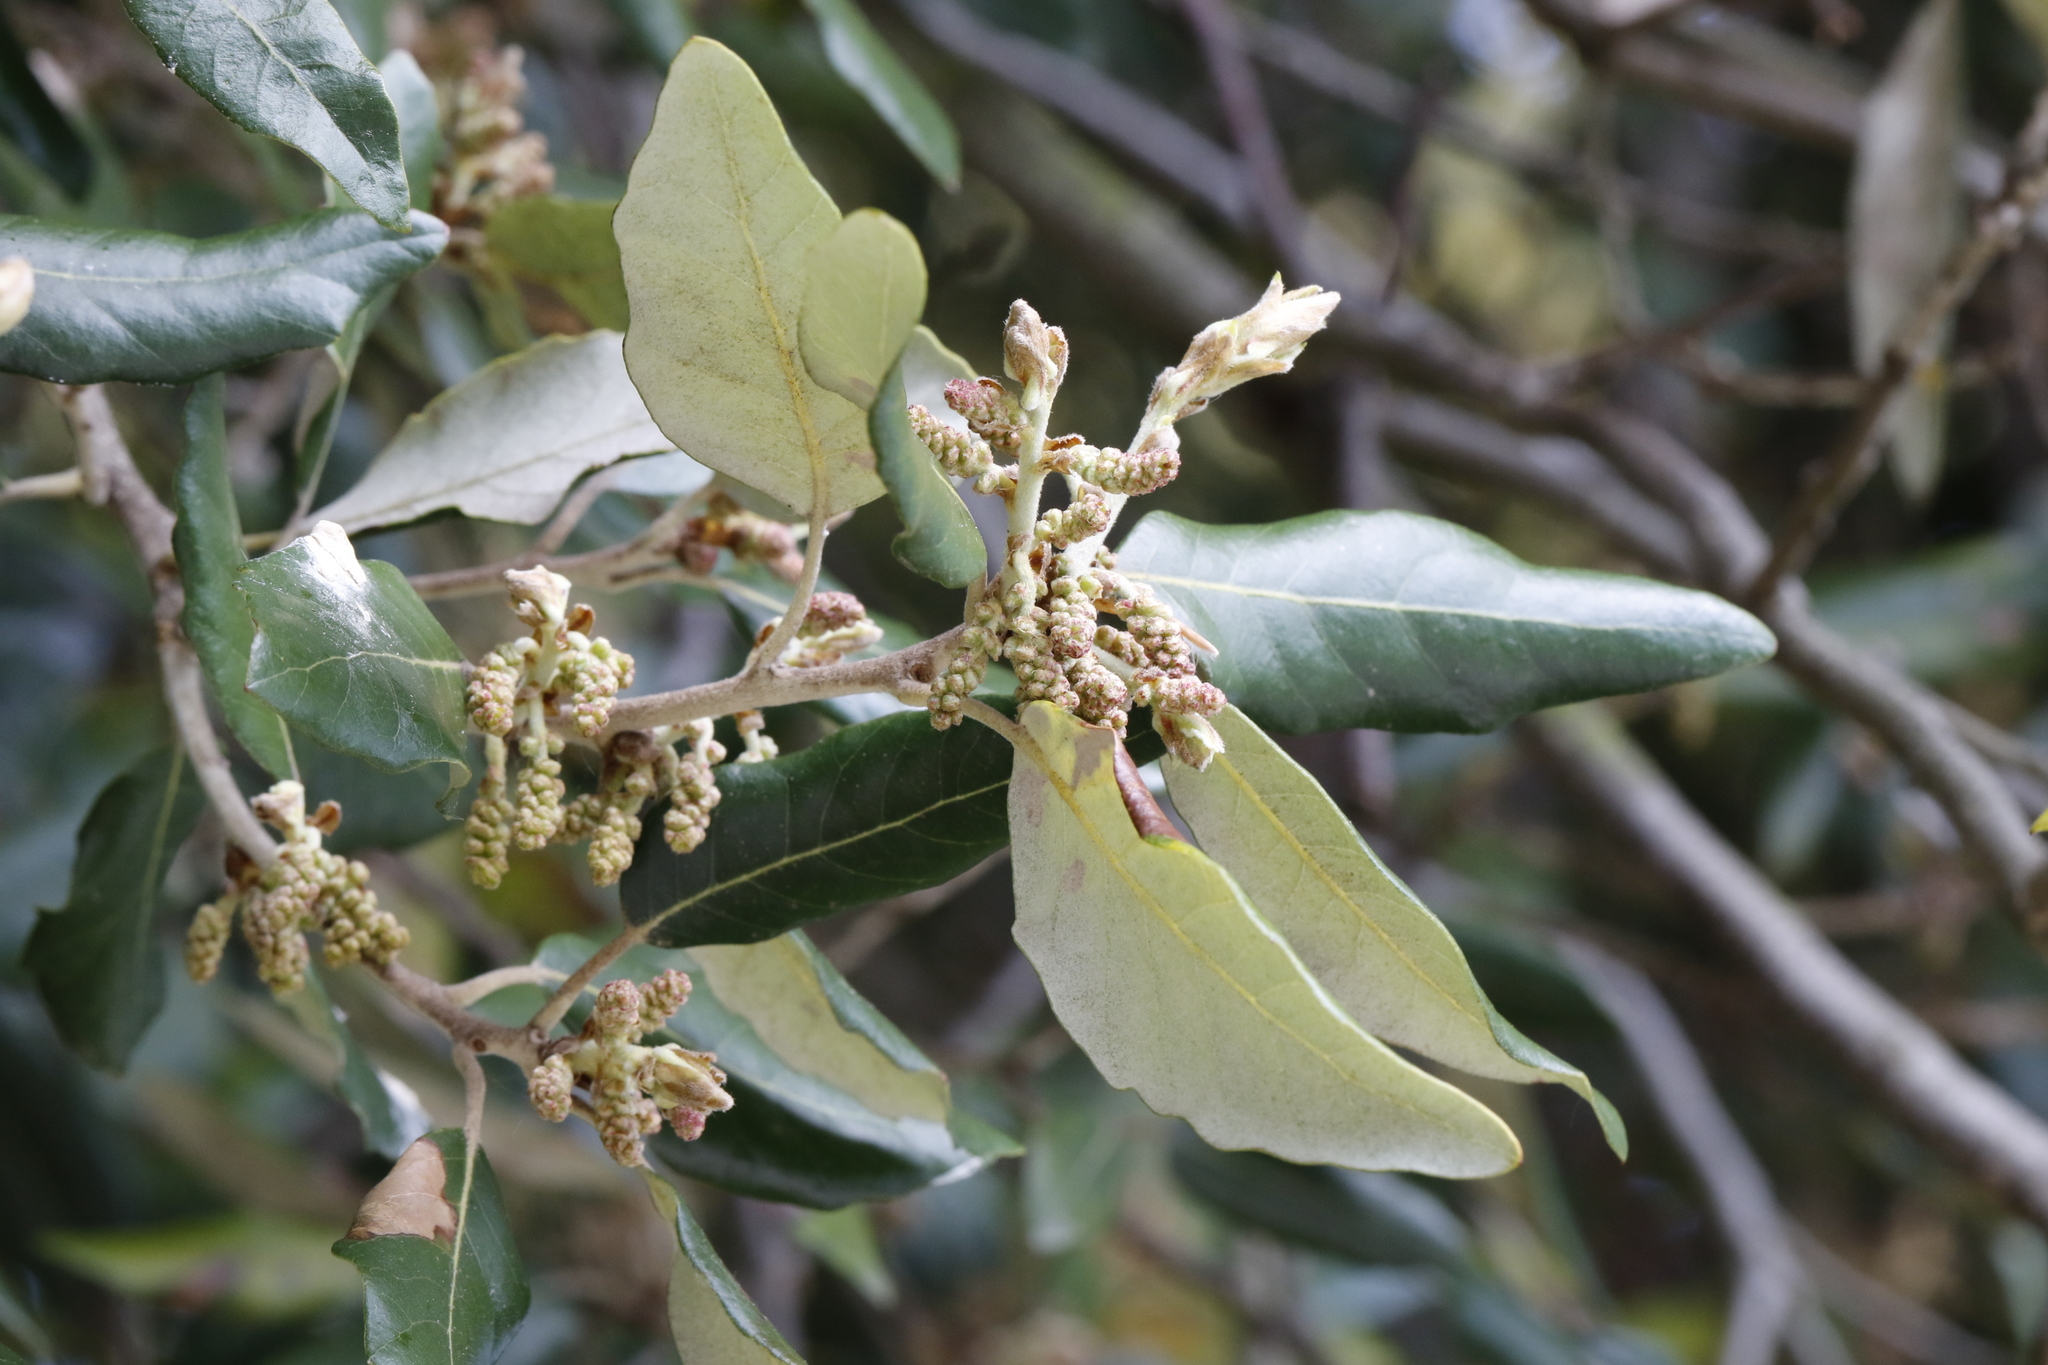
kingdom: Plantae
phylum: Tracheophyta
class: Magnoliopsida
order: Fagales
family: Fagaceae
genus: Quercus
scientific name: Quercus ilex
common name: Evergreen oak
